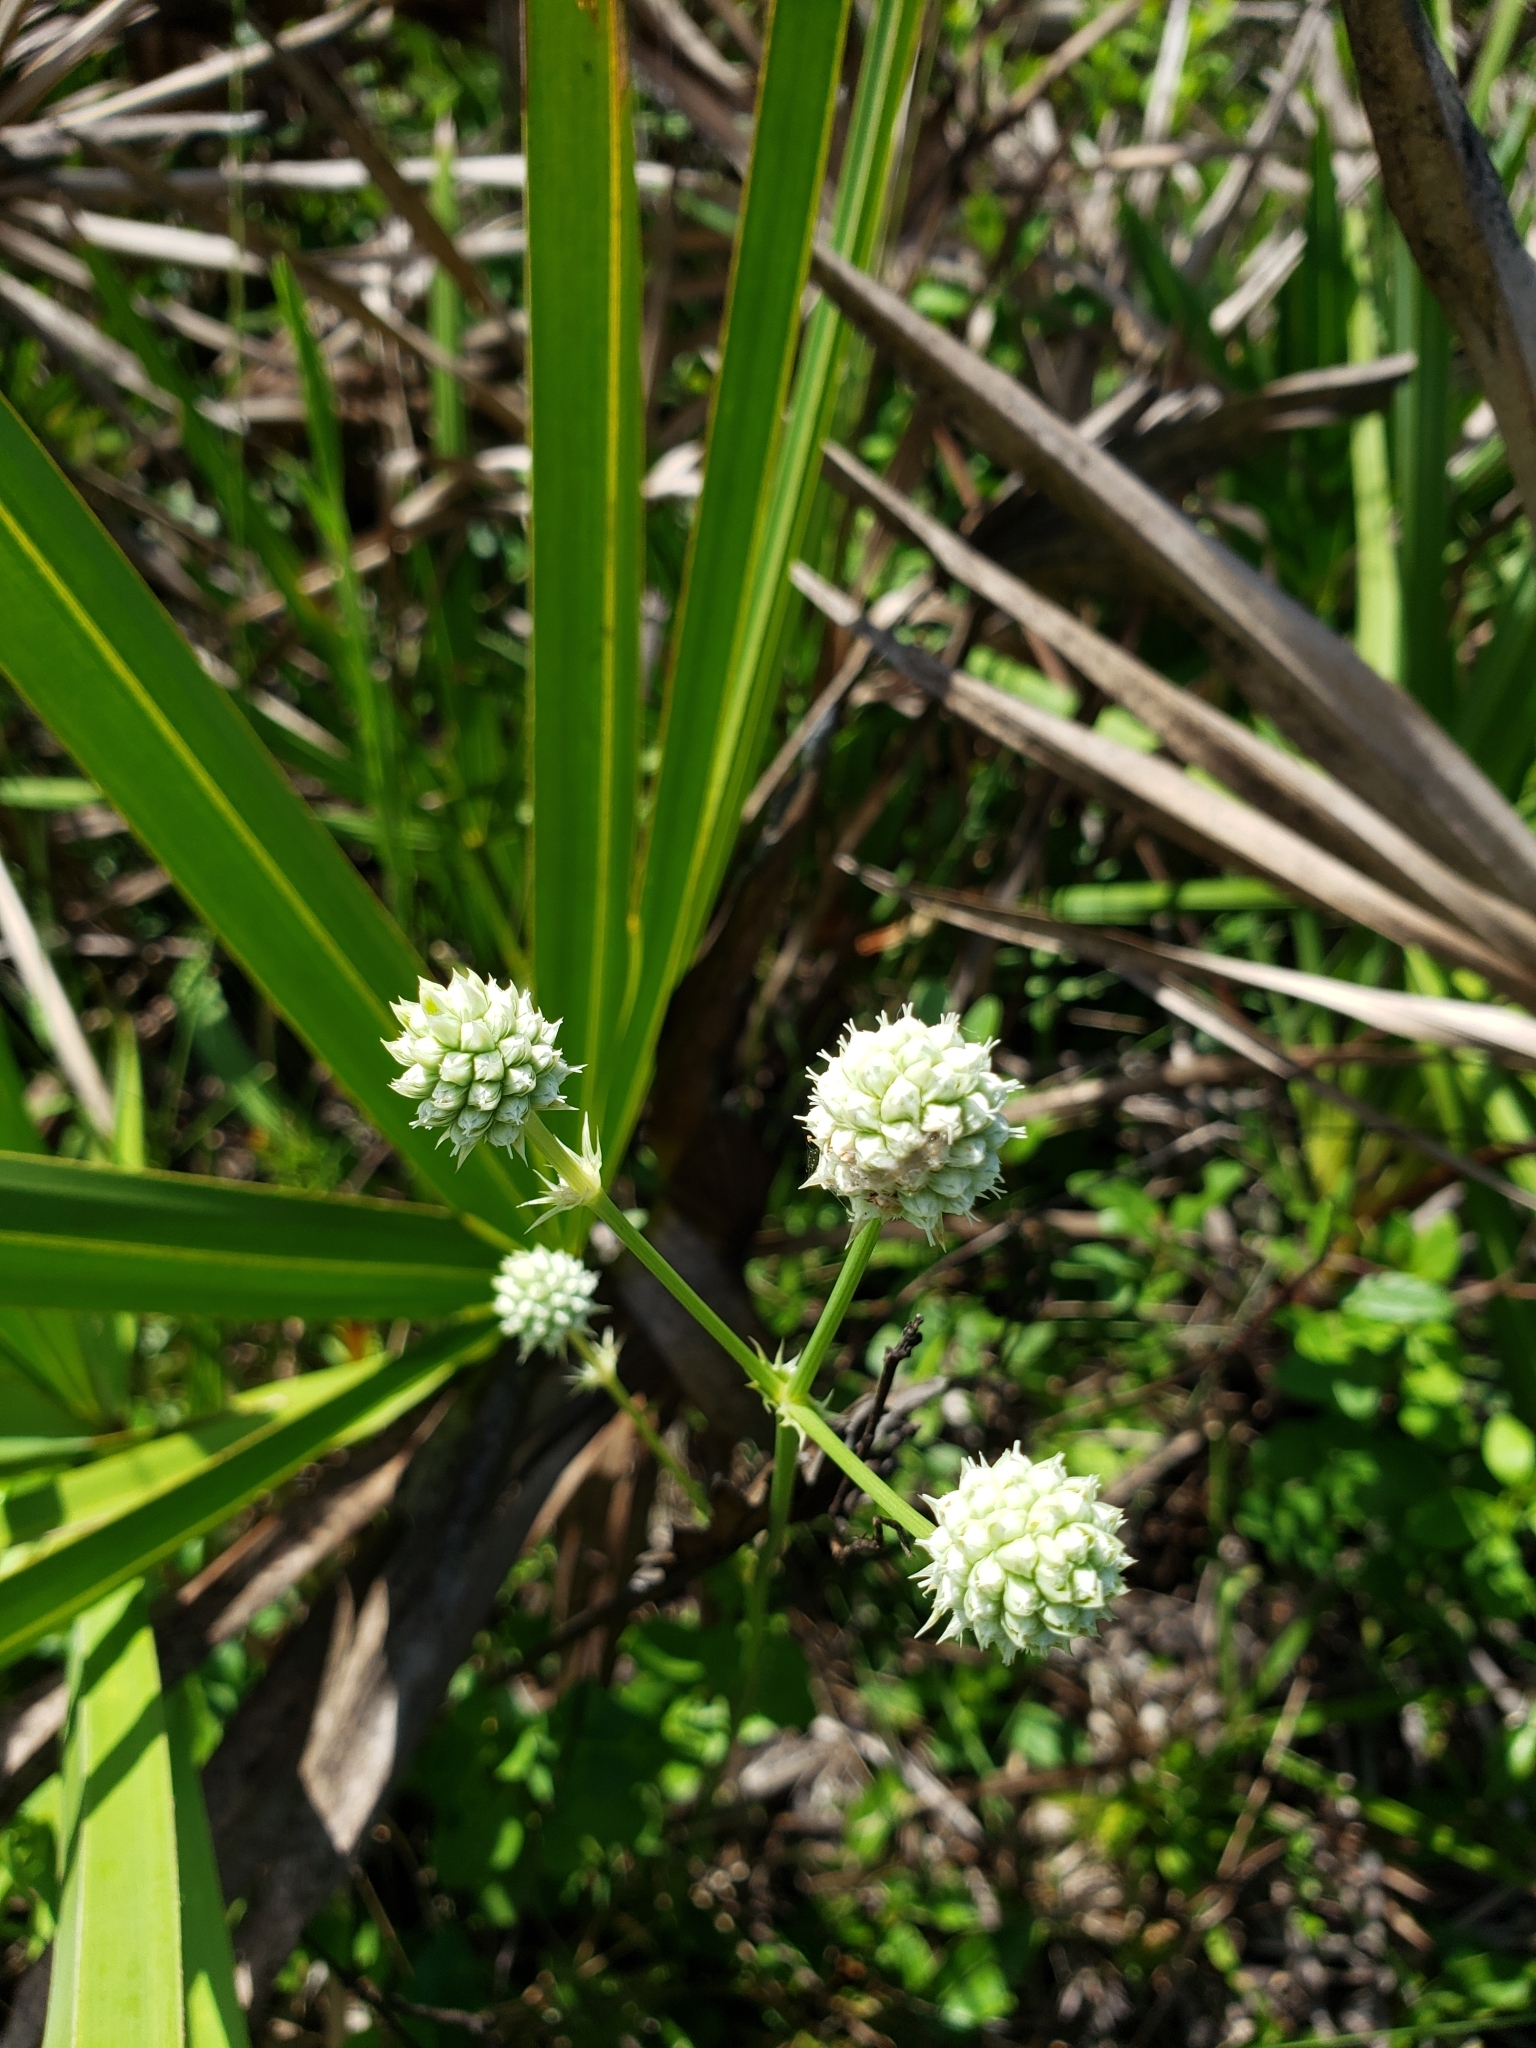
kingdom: Plantae
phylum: Tracheophyta
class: Magnoliopsida
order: Apiales
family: Apiaceae
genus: Eryngium
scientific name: Eryngium yuccifolium
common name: Button eryngo
